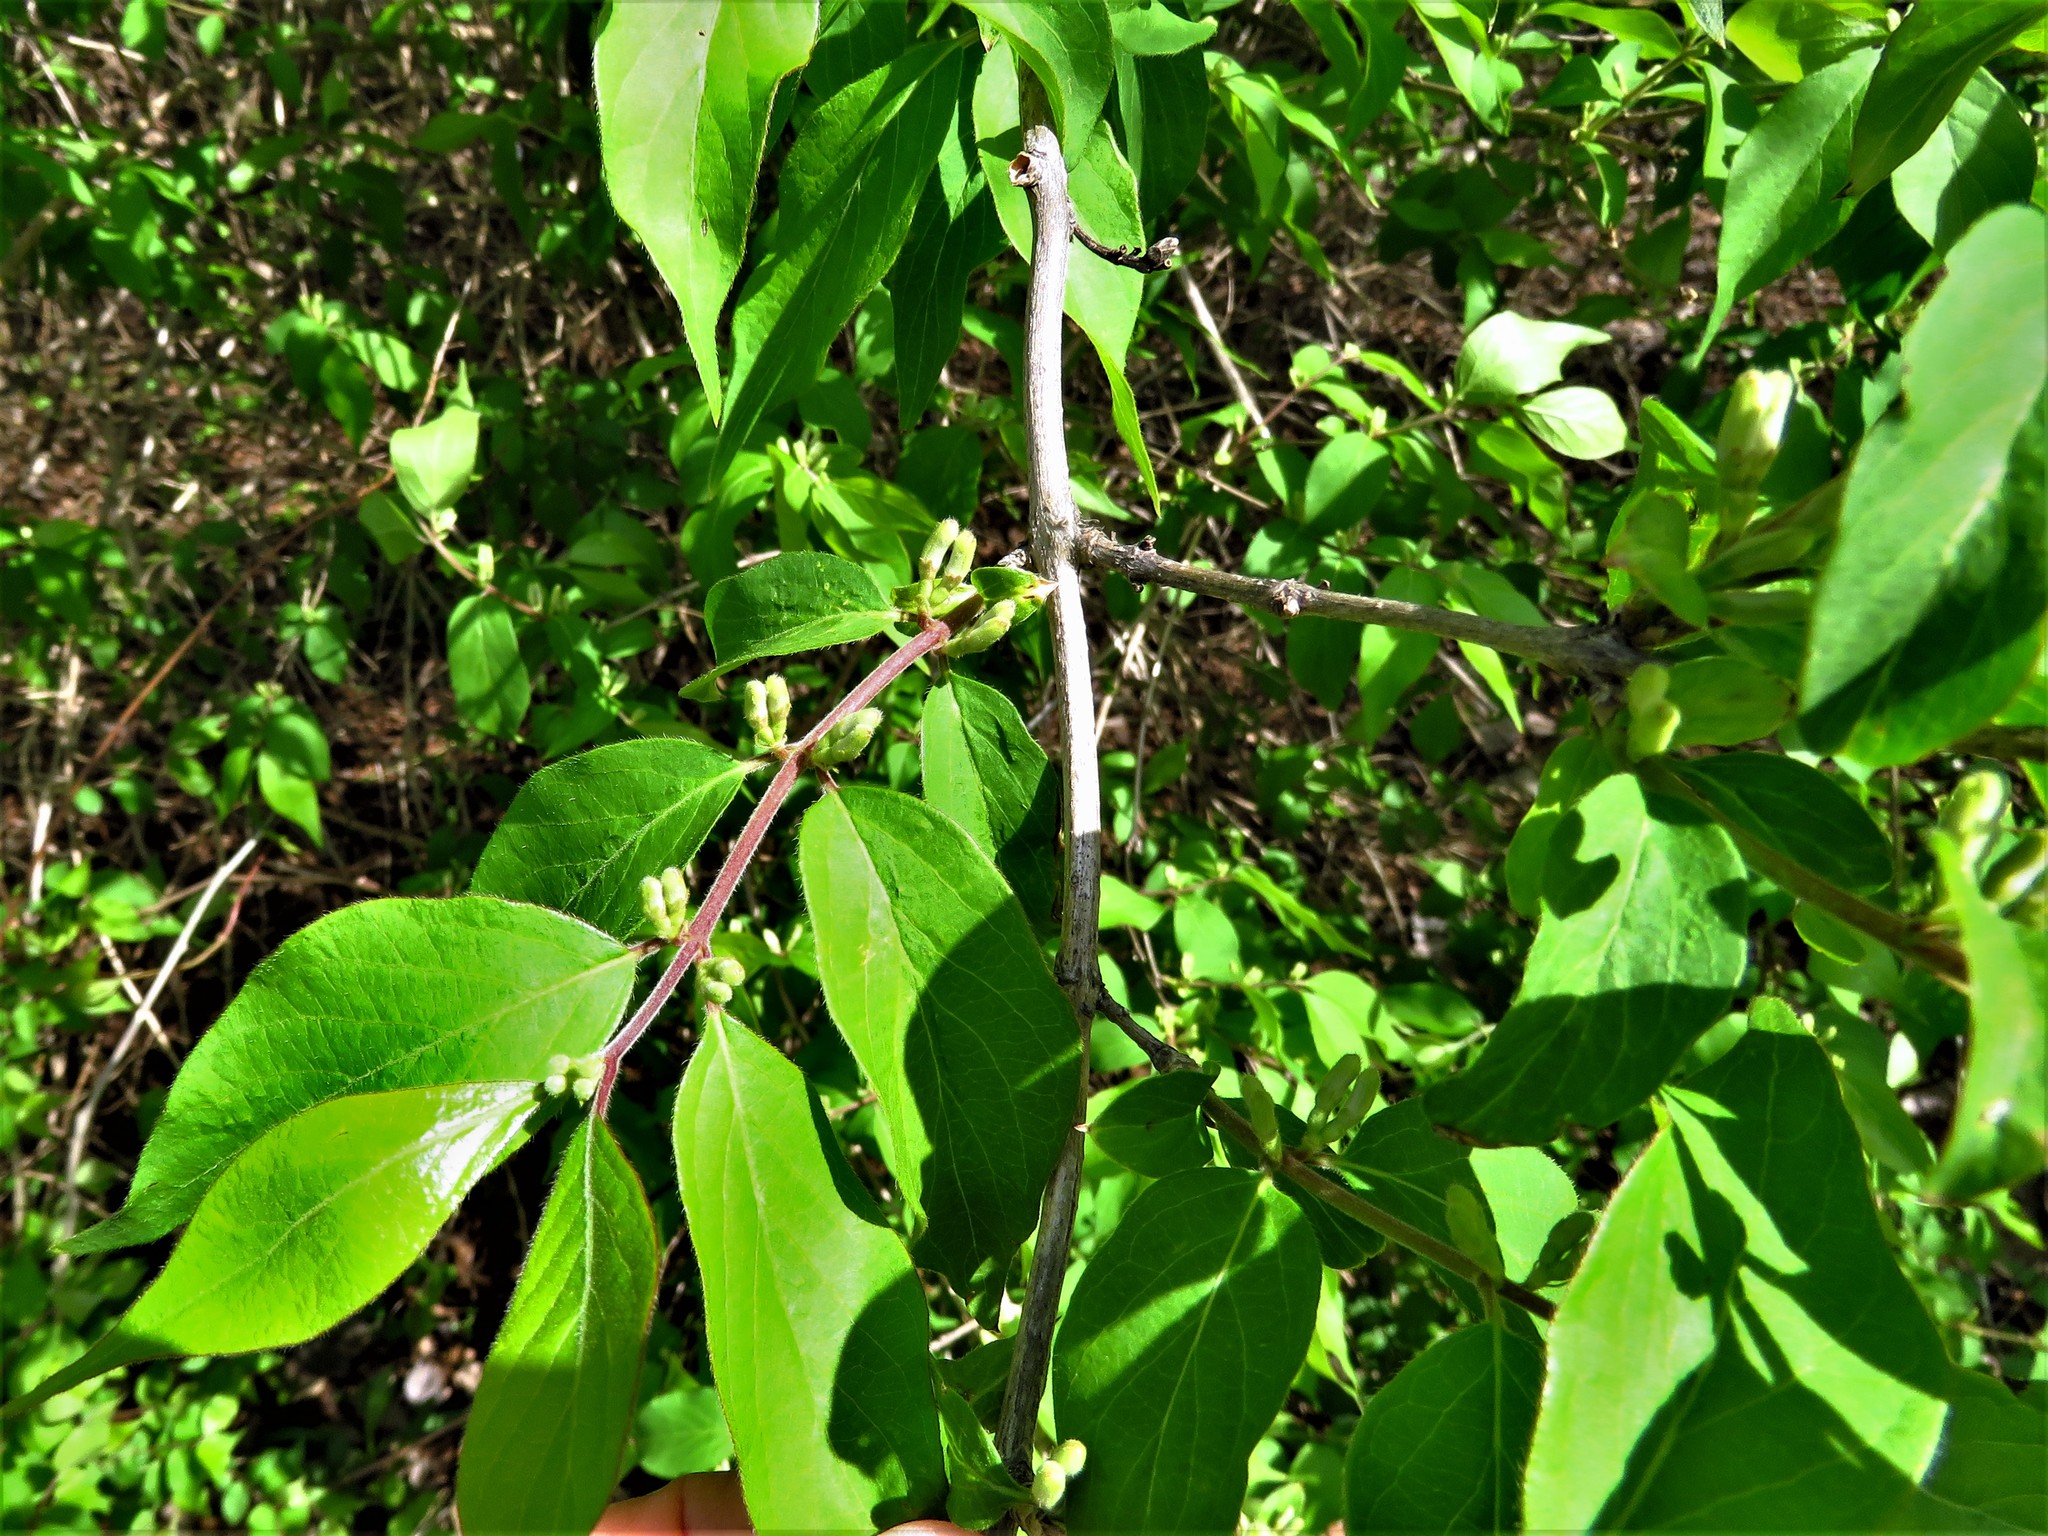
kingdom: Plantae
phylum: Tracheophyta
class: Magnoliopsida
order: Dipsacales
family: Caprifoliaceae
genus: Lonicera
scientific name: Lonicera maackii
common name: Amur honeysuckle
